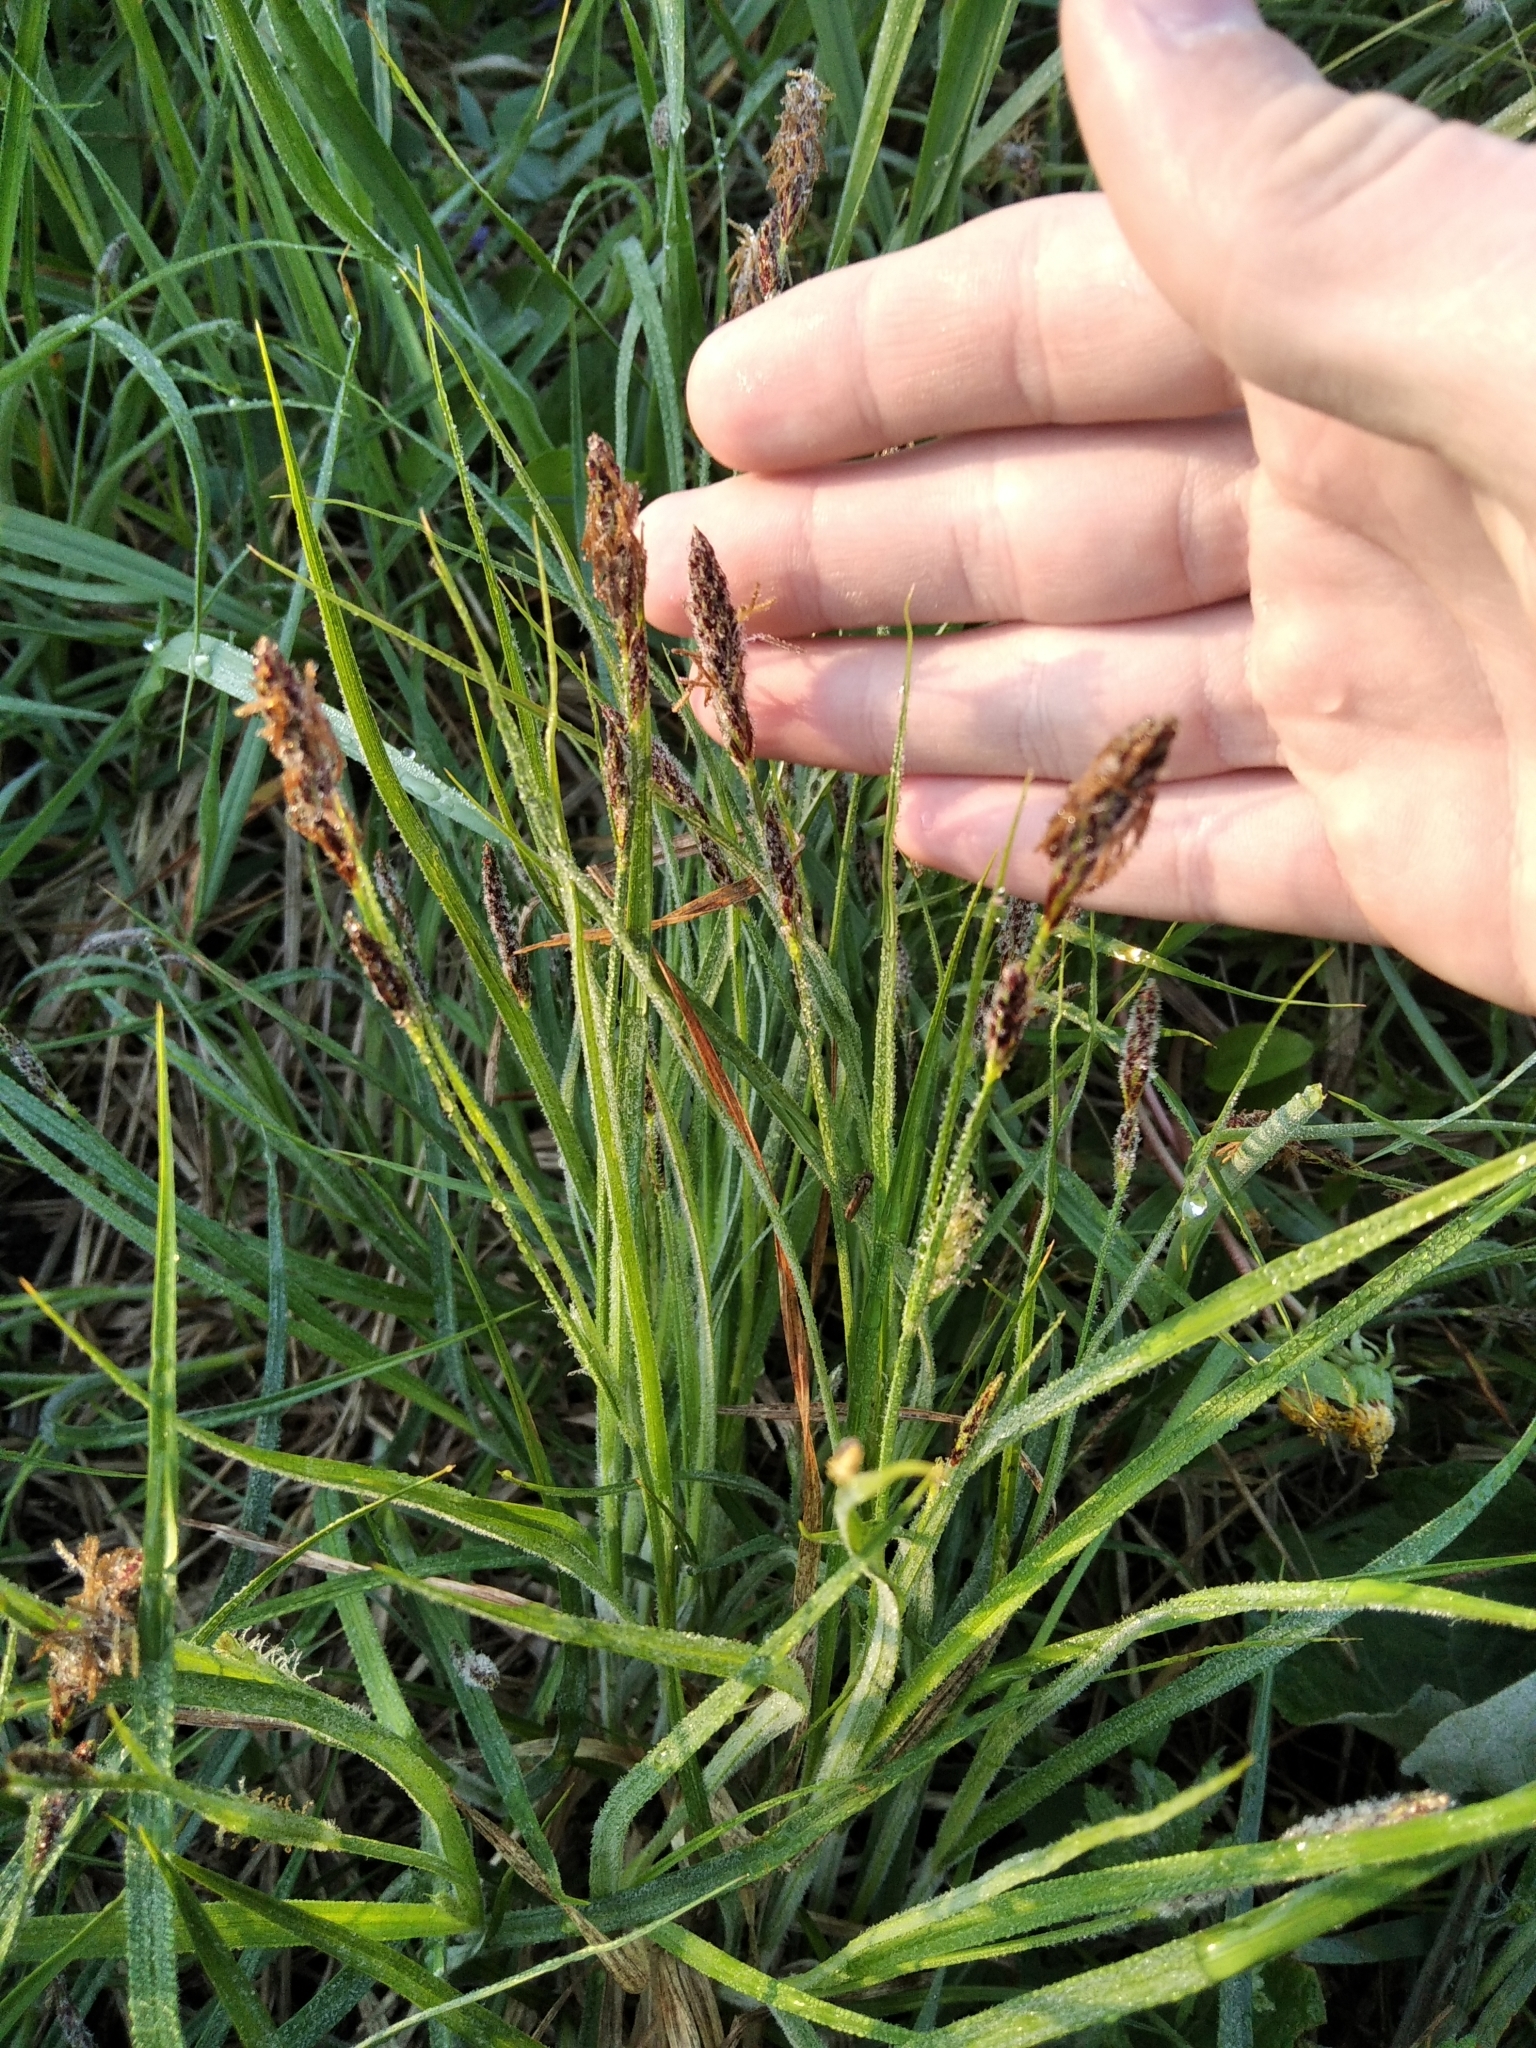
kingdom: Plantae
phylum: Tracheophyta
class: Liliopsida
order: Poales
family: Cyperaceae
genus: Carex
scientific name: Carex hirta
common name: Hairy sedge
